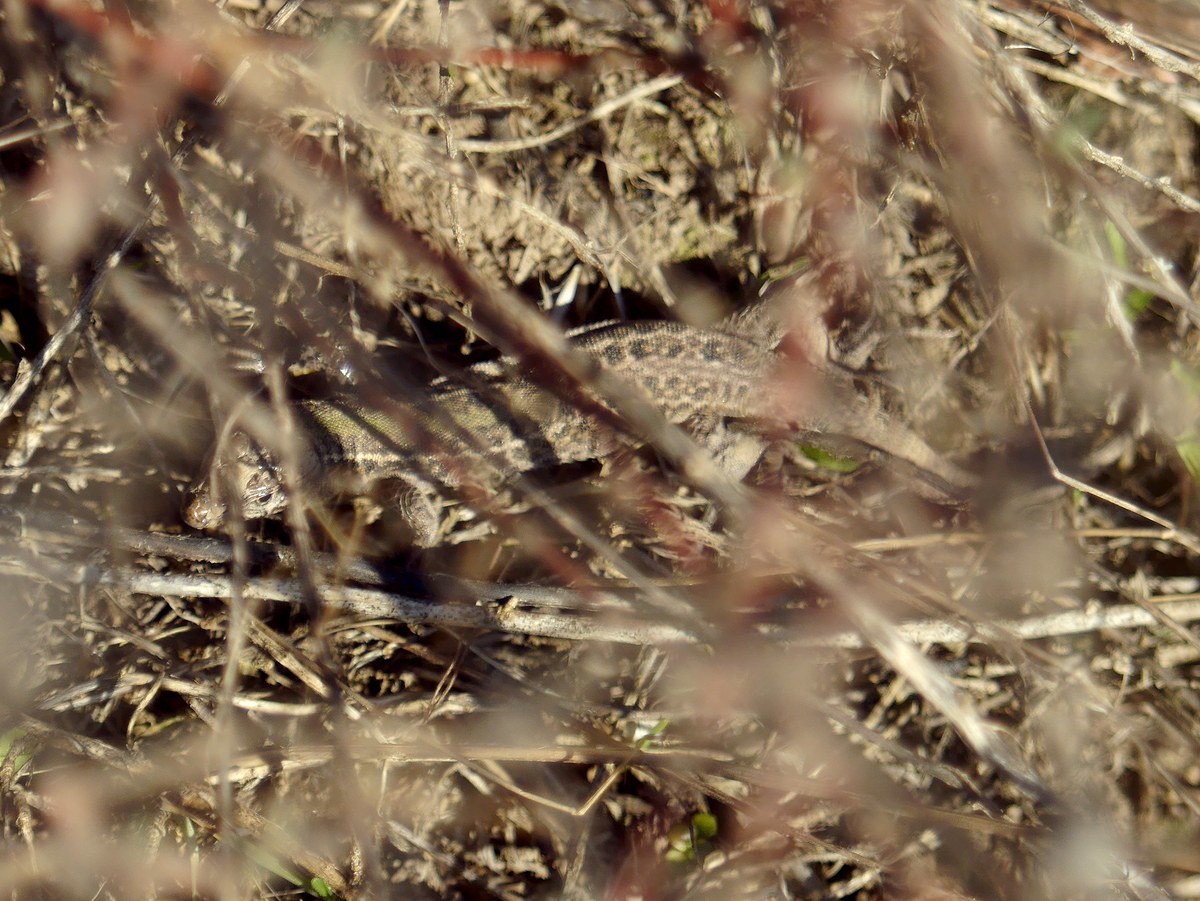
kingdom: Animalia
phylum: Chordata
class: Squamata
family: Lacertidae
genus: Podarcis
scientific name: Podarcis tauricus
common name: Balkan wall lizard
